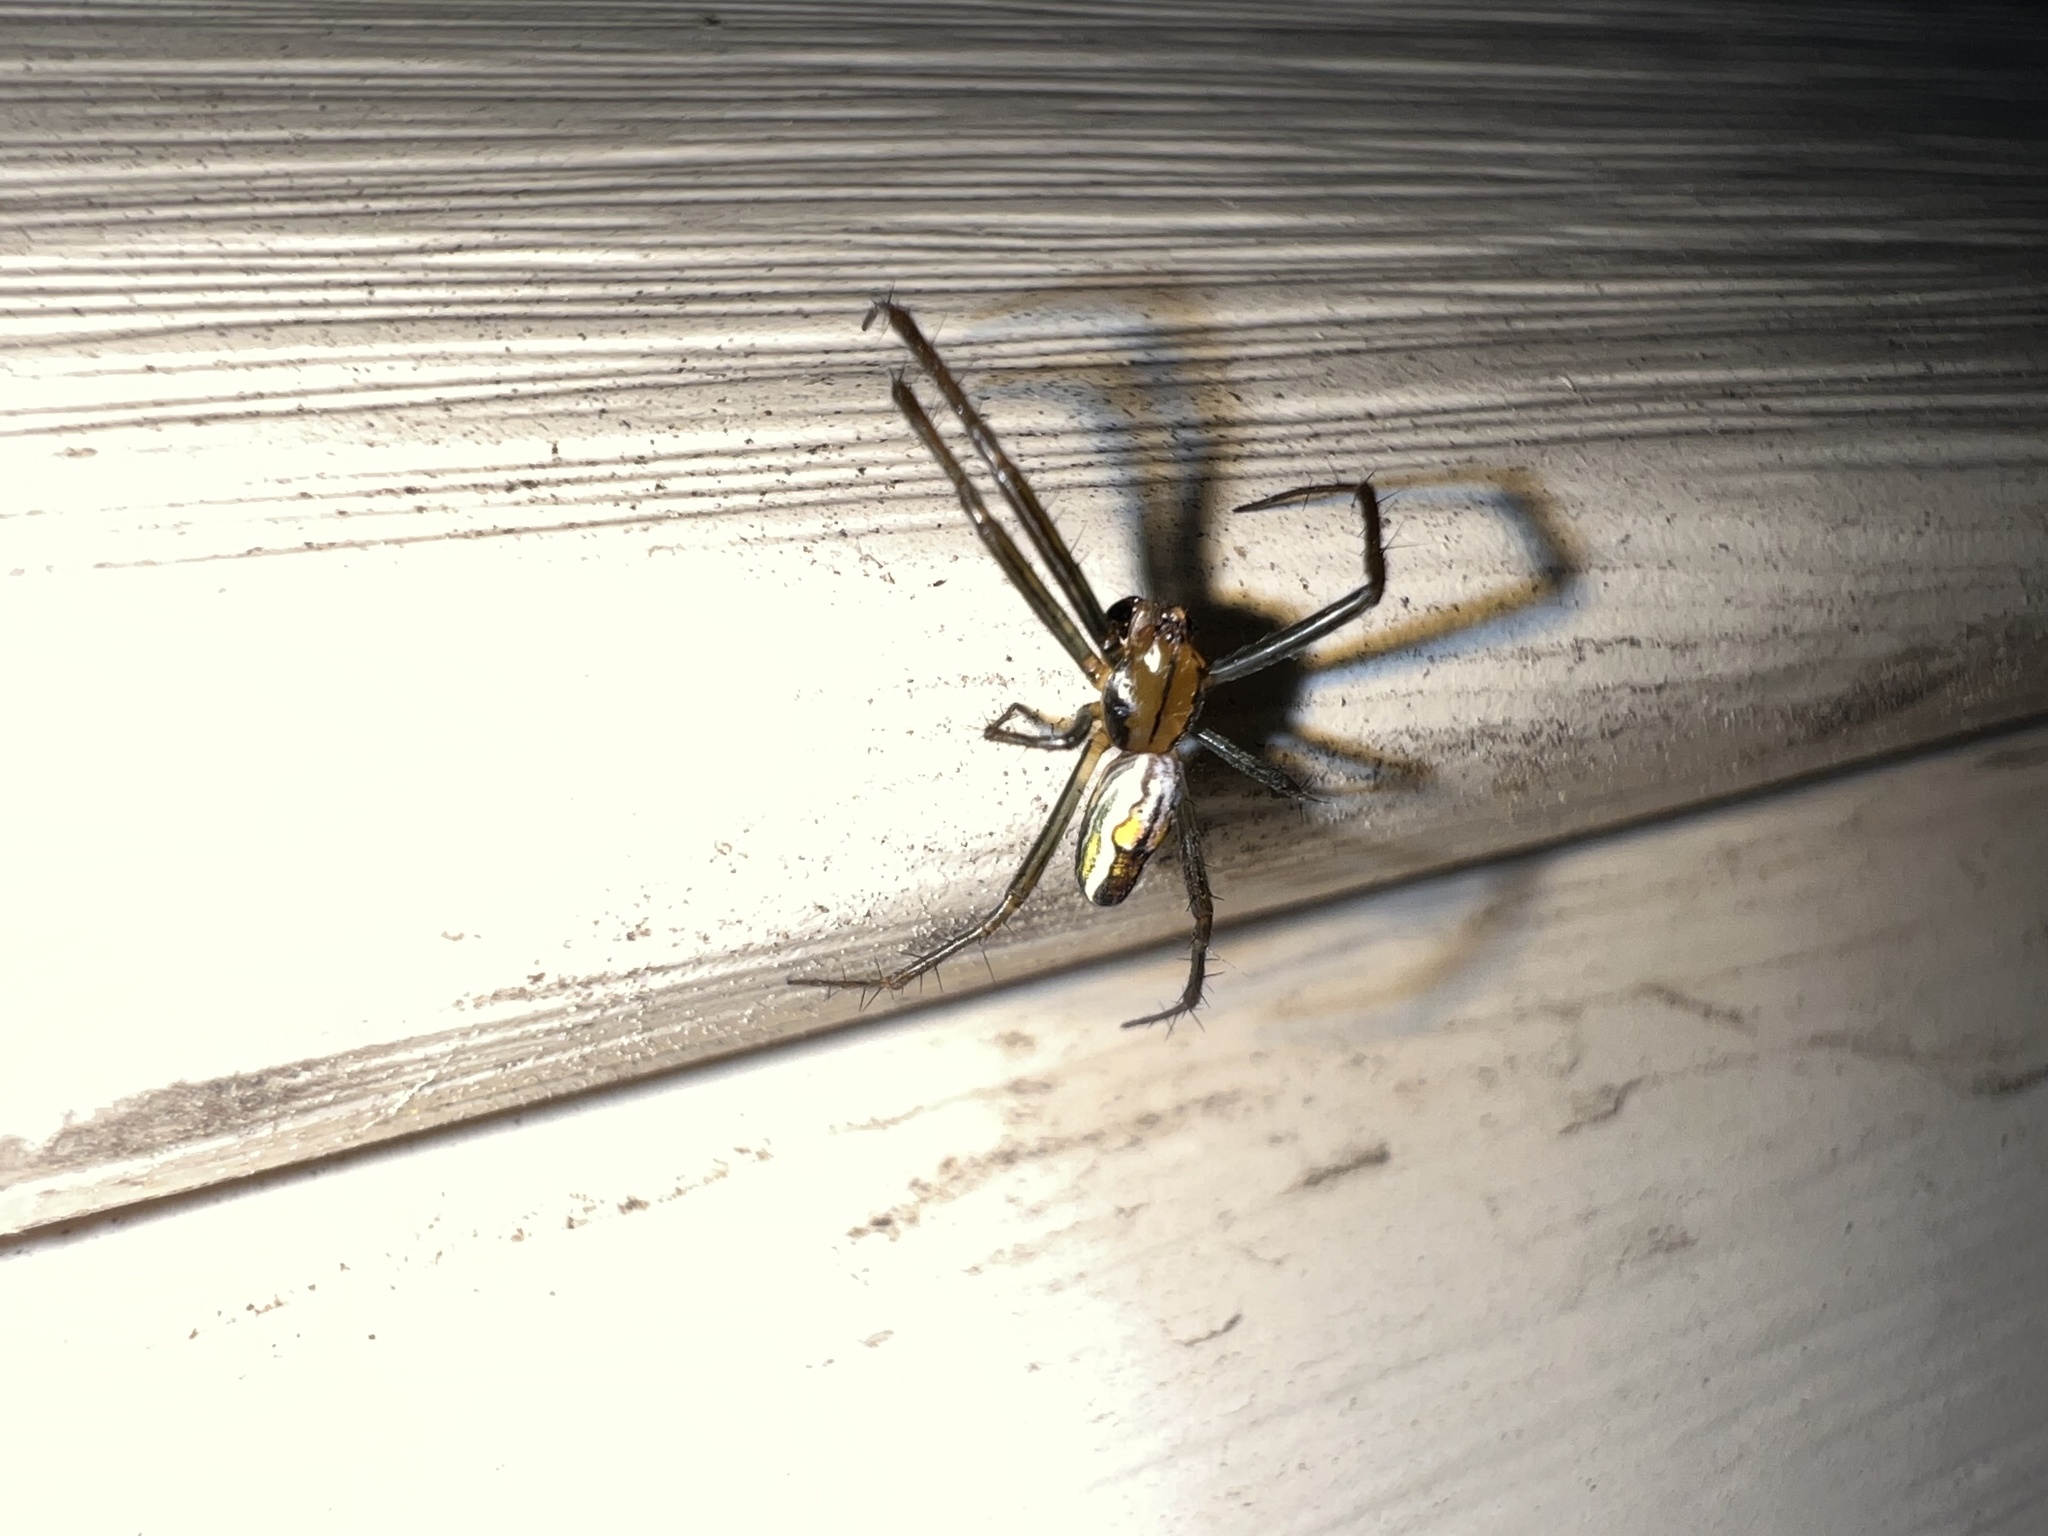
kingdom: Animalia
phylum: Arthropoda
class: Arachnida
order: Araneae
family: Araneidae
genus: Mecynogea
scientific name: Mecynogea lemniscata
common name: Orb weavers
